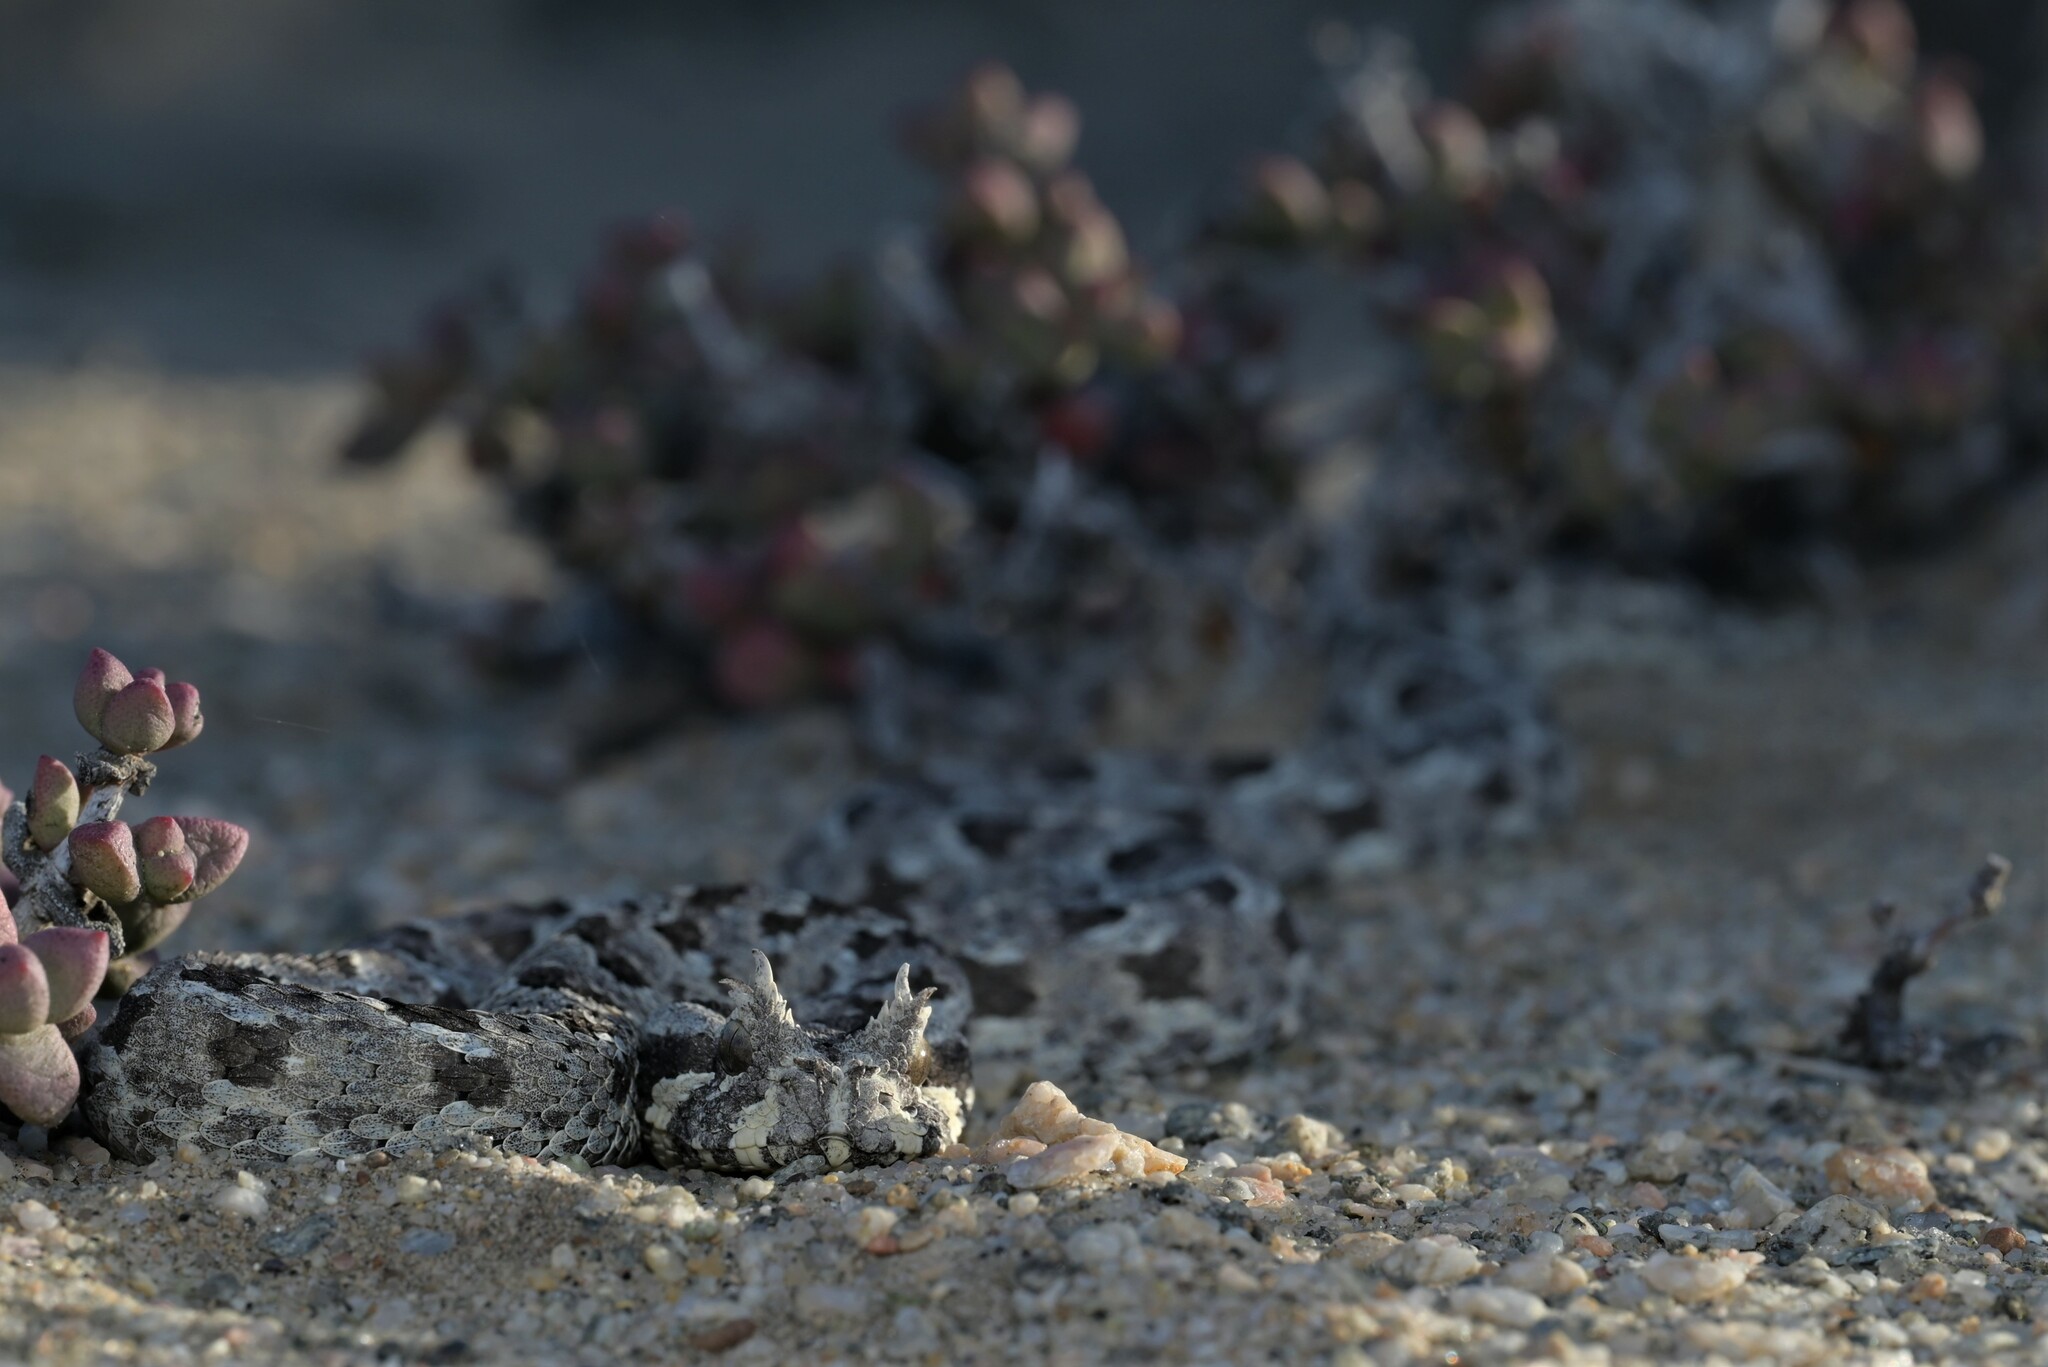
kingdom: Animalia
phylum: Chordata
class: Squamata
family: Viperidae
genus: Bitis
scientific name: Bitis cornuta
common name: Many-horned adder
